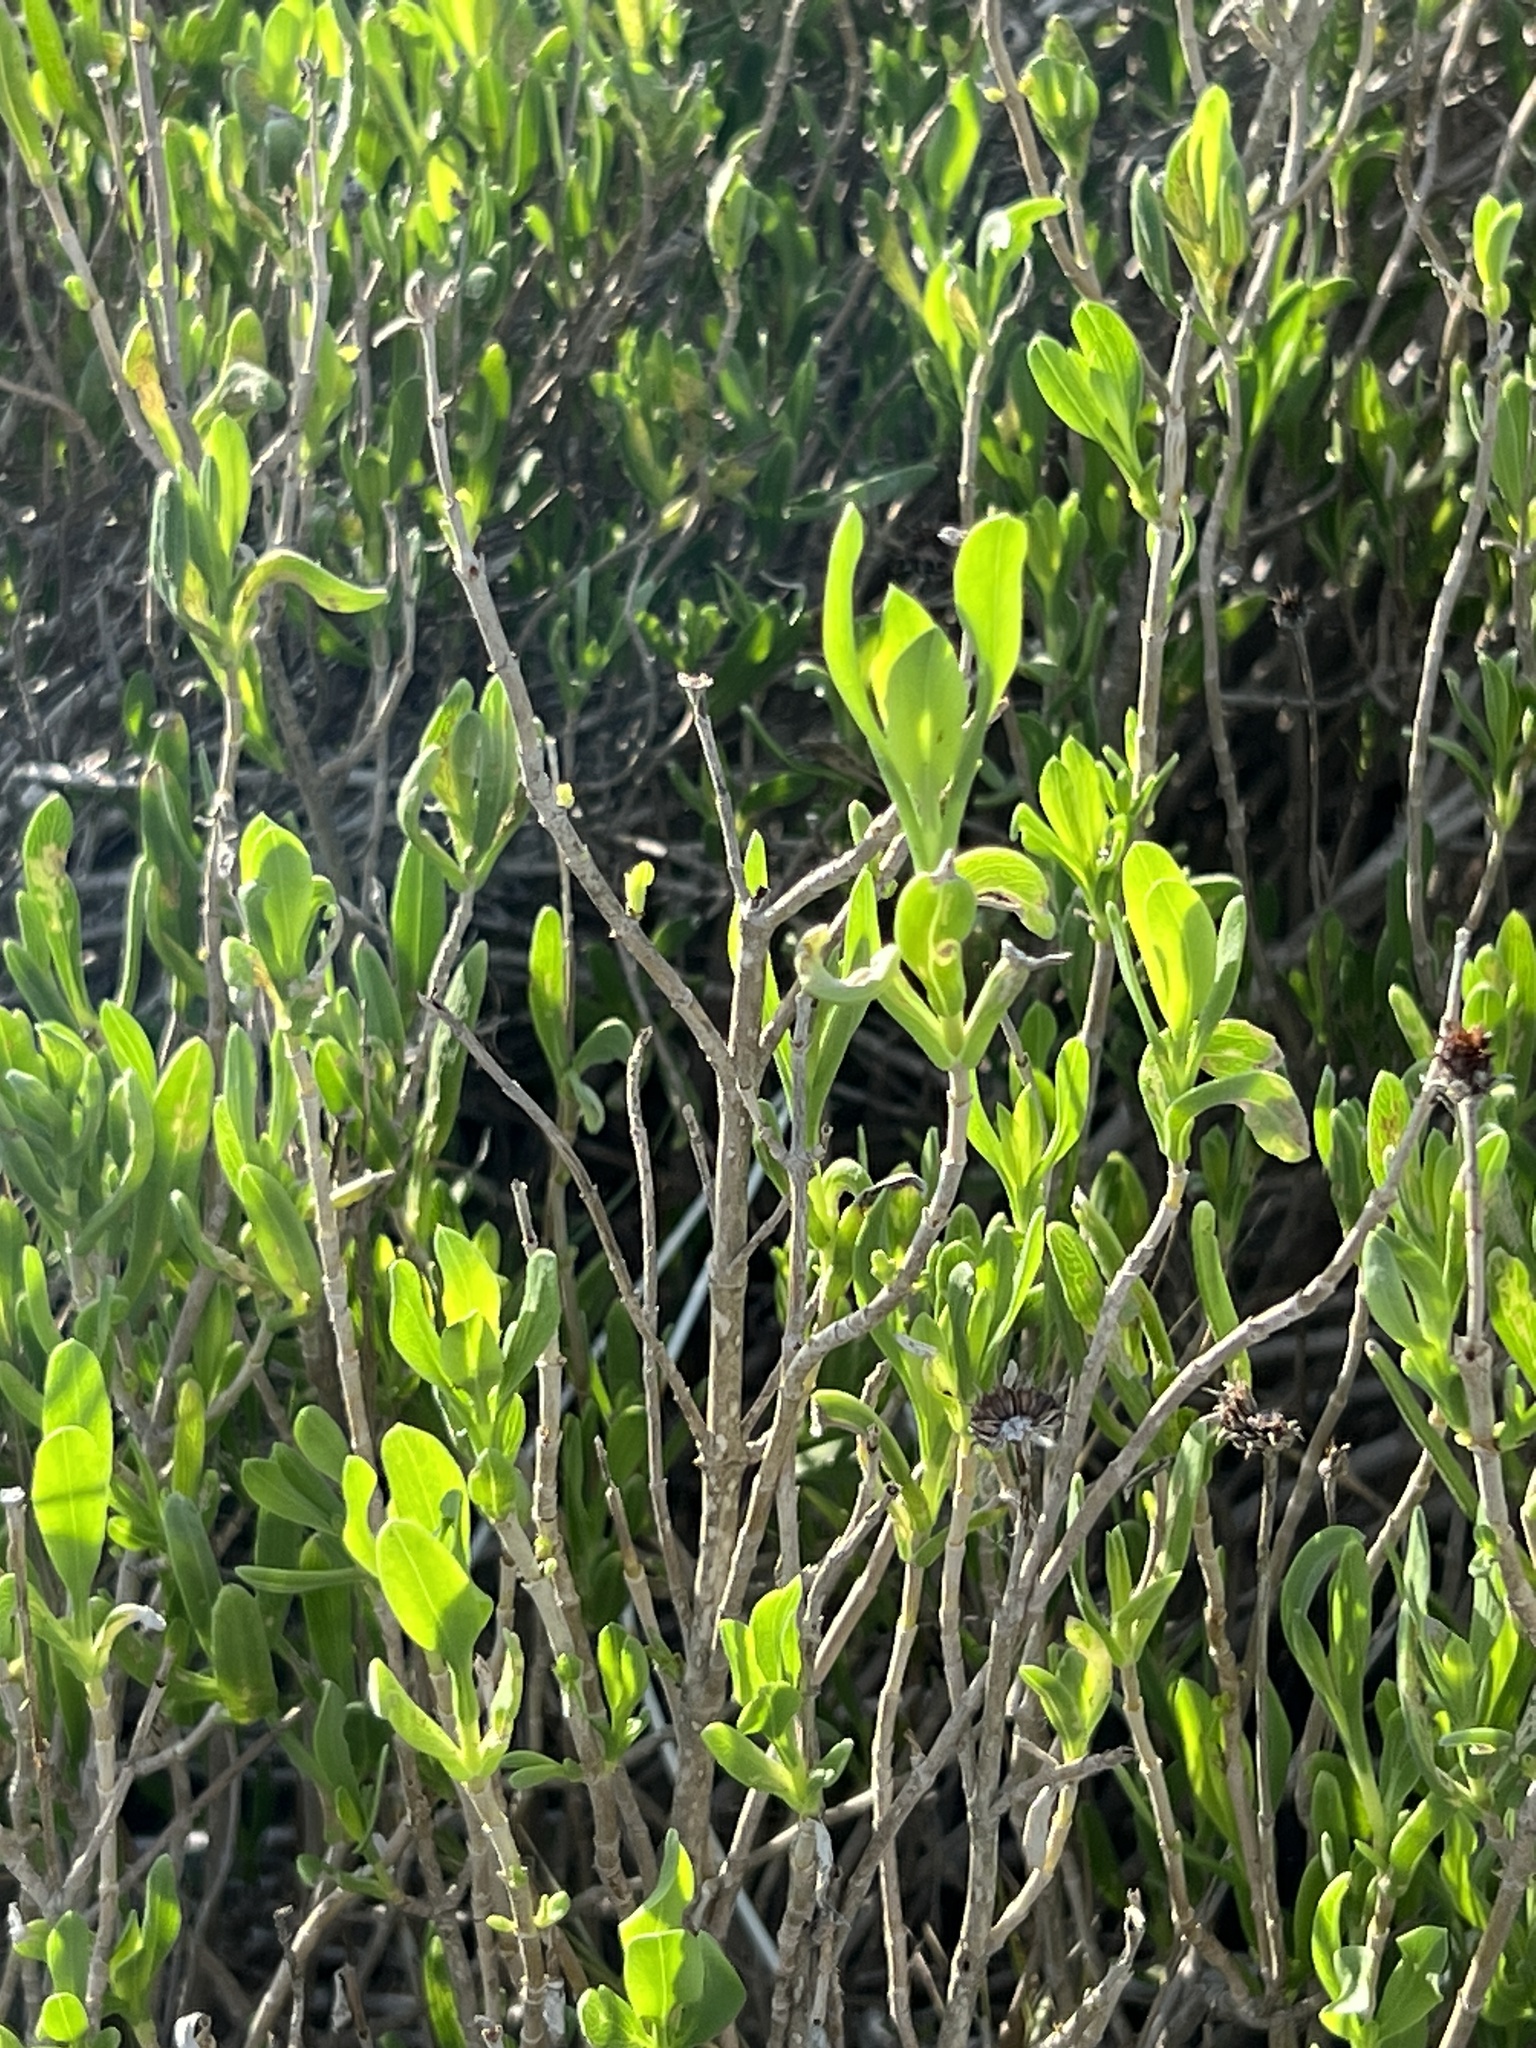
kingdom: Plantae
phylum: Tracheophyta
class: Magnoliopsida
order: Asterales
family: Asteraceae
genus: Borrichia
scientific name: Borrichia frutescens
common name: Sea oxeye
